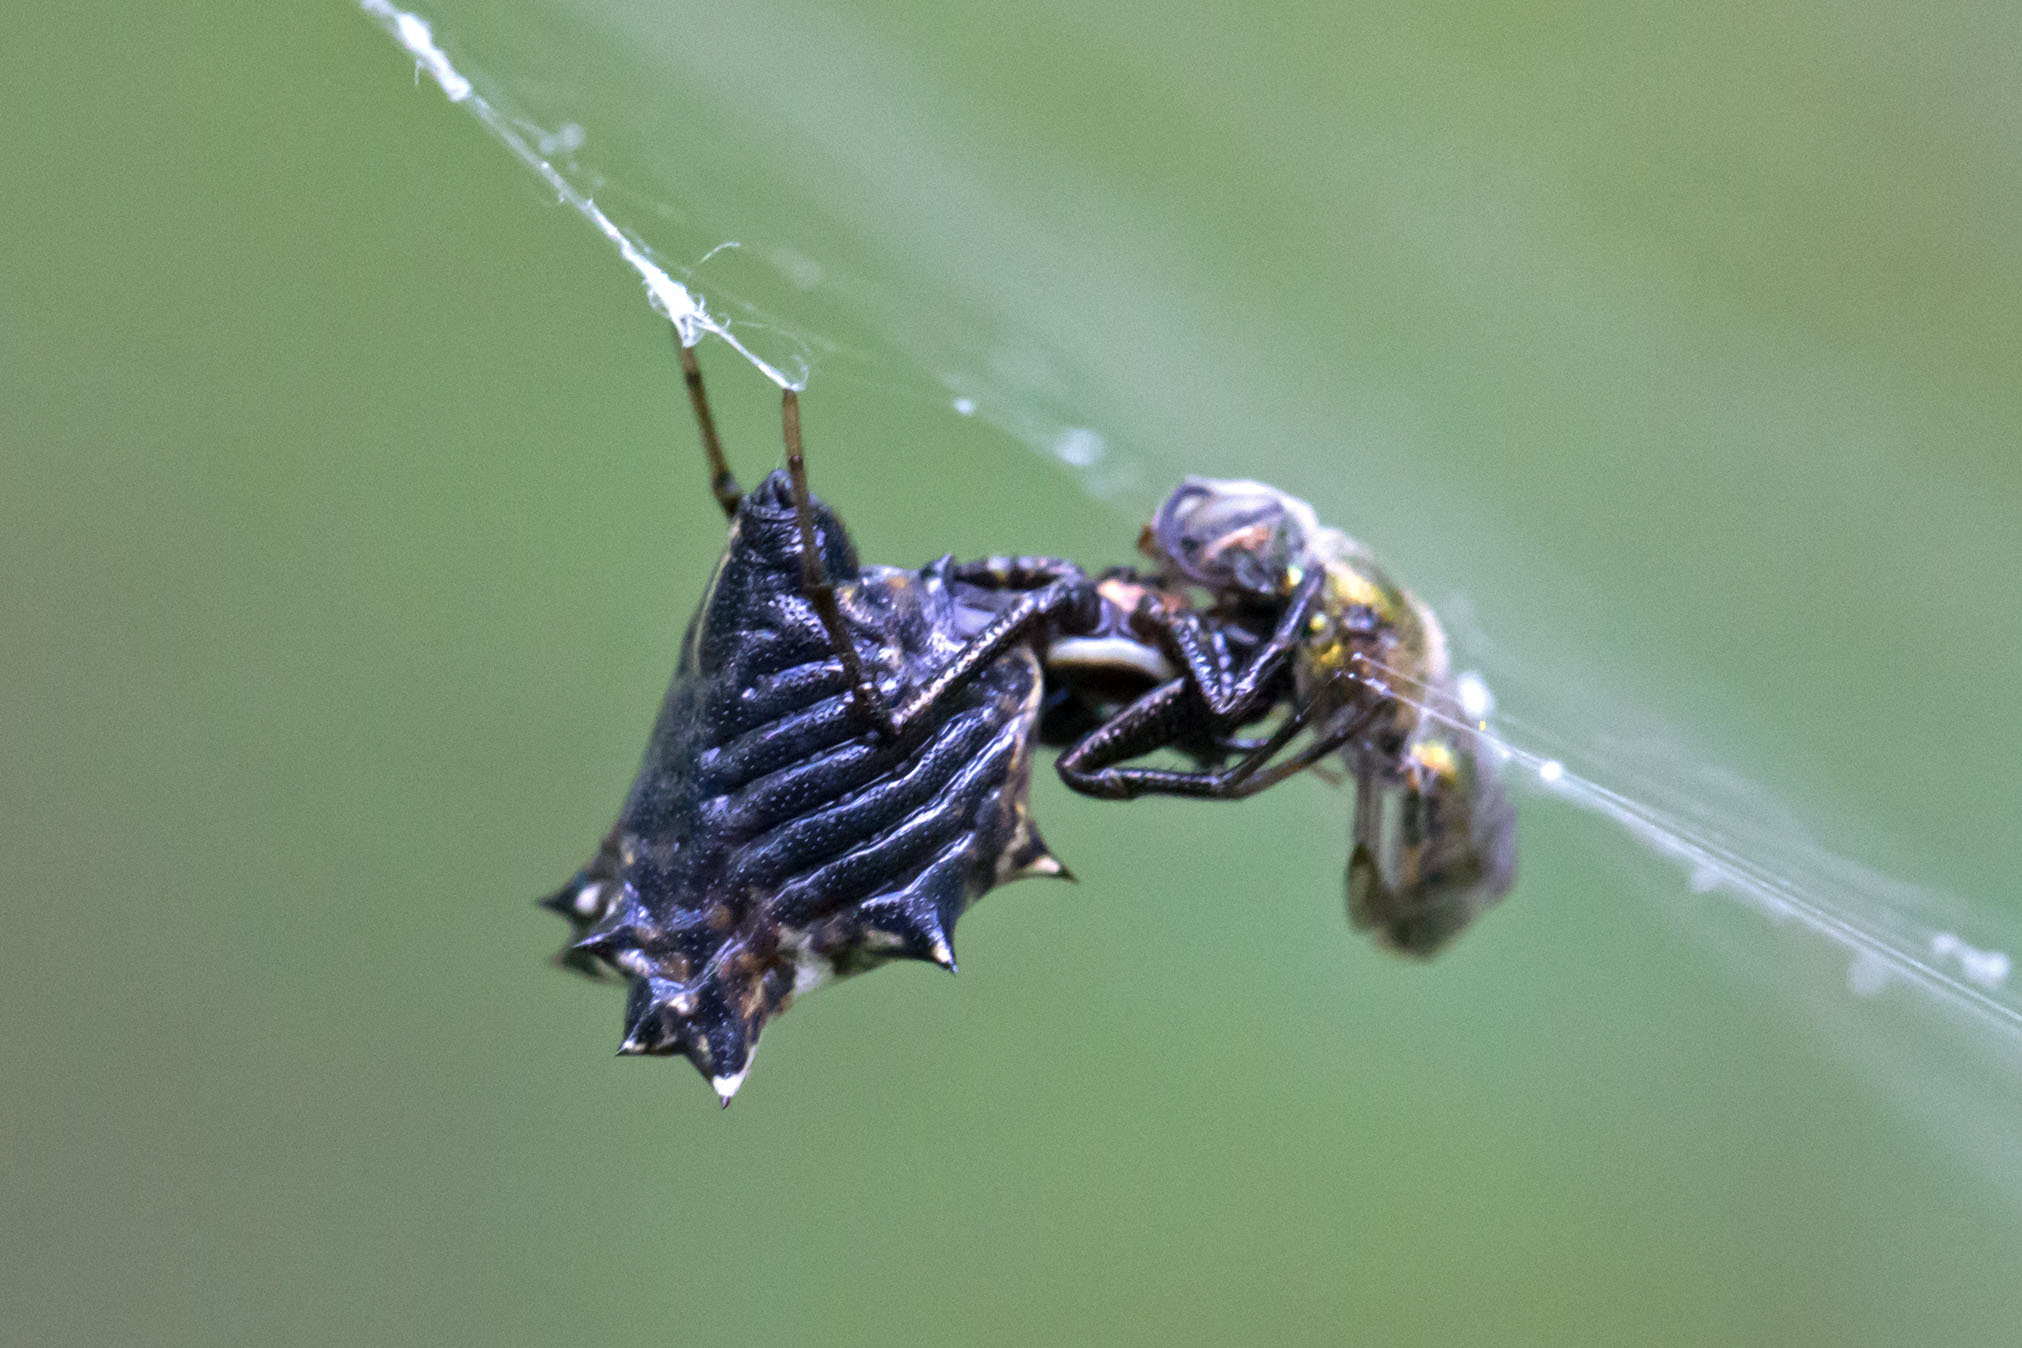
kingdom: Animalia
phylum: Arthropoda
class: Arachnida
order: Araneae
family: Araneidae
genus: Micrathena
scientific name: Micrathena gracilis
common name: Orb weavers
